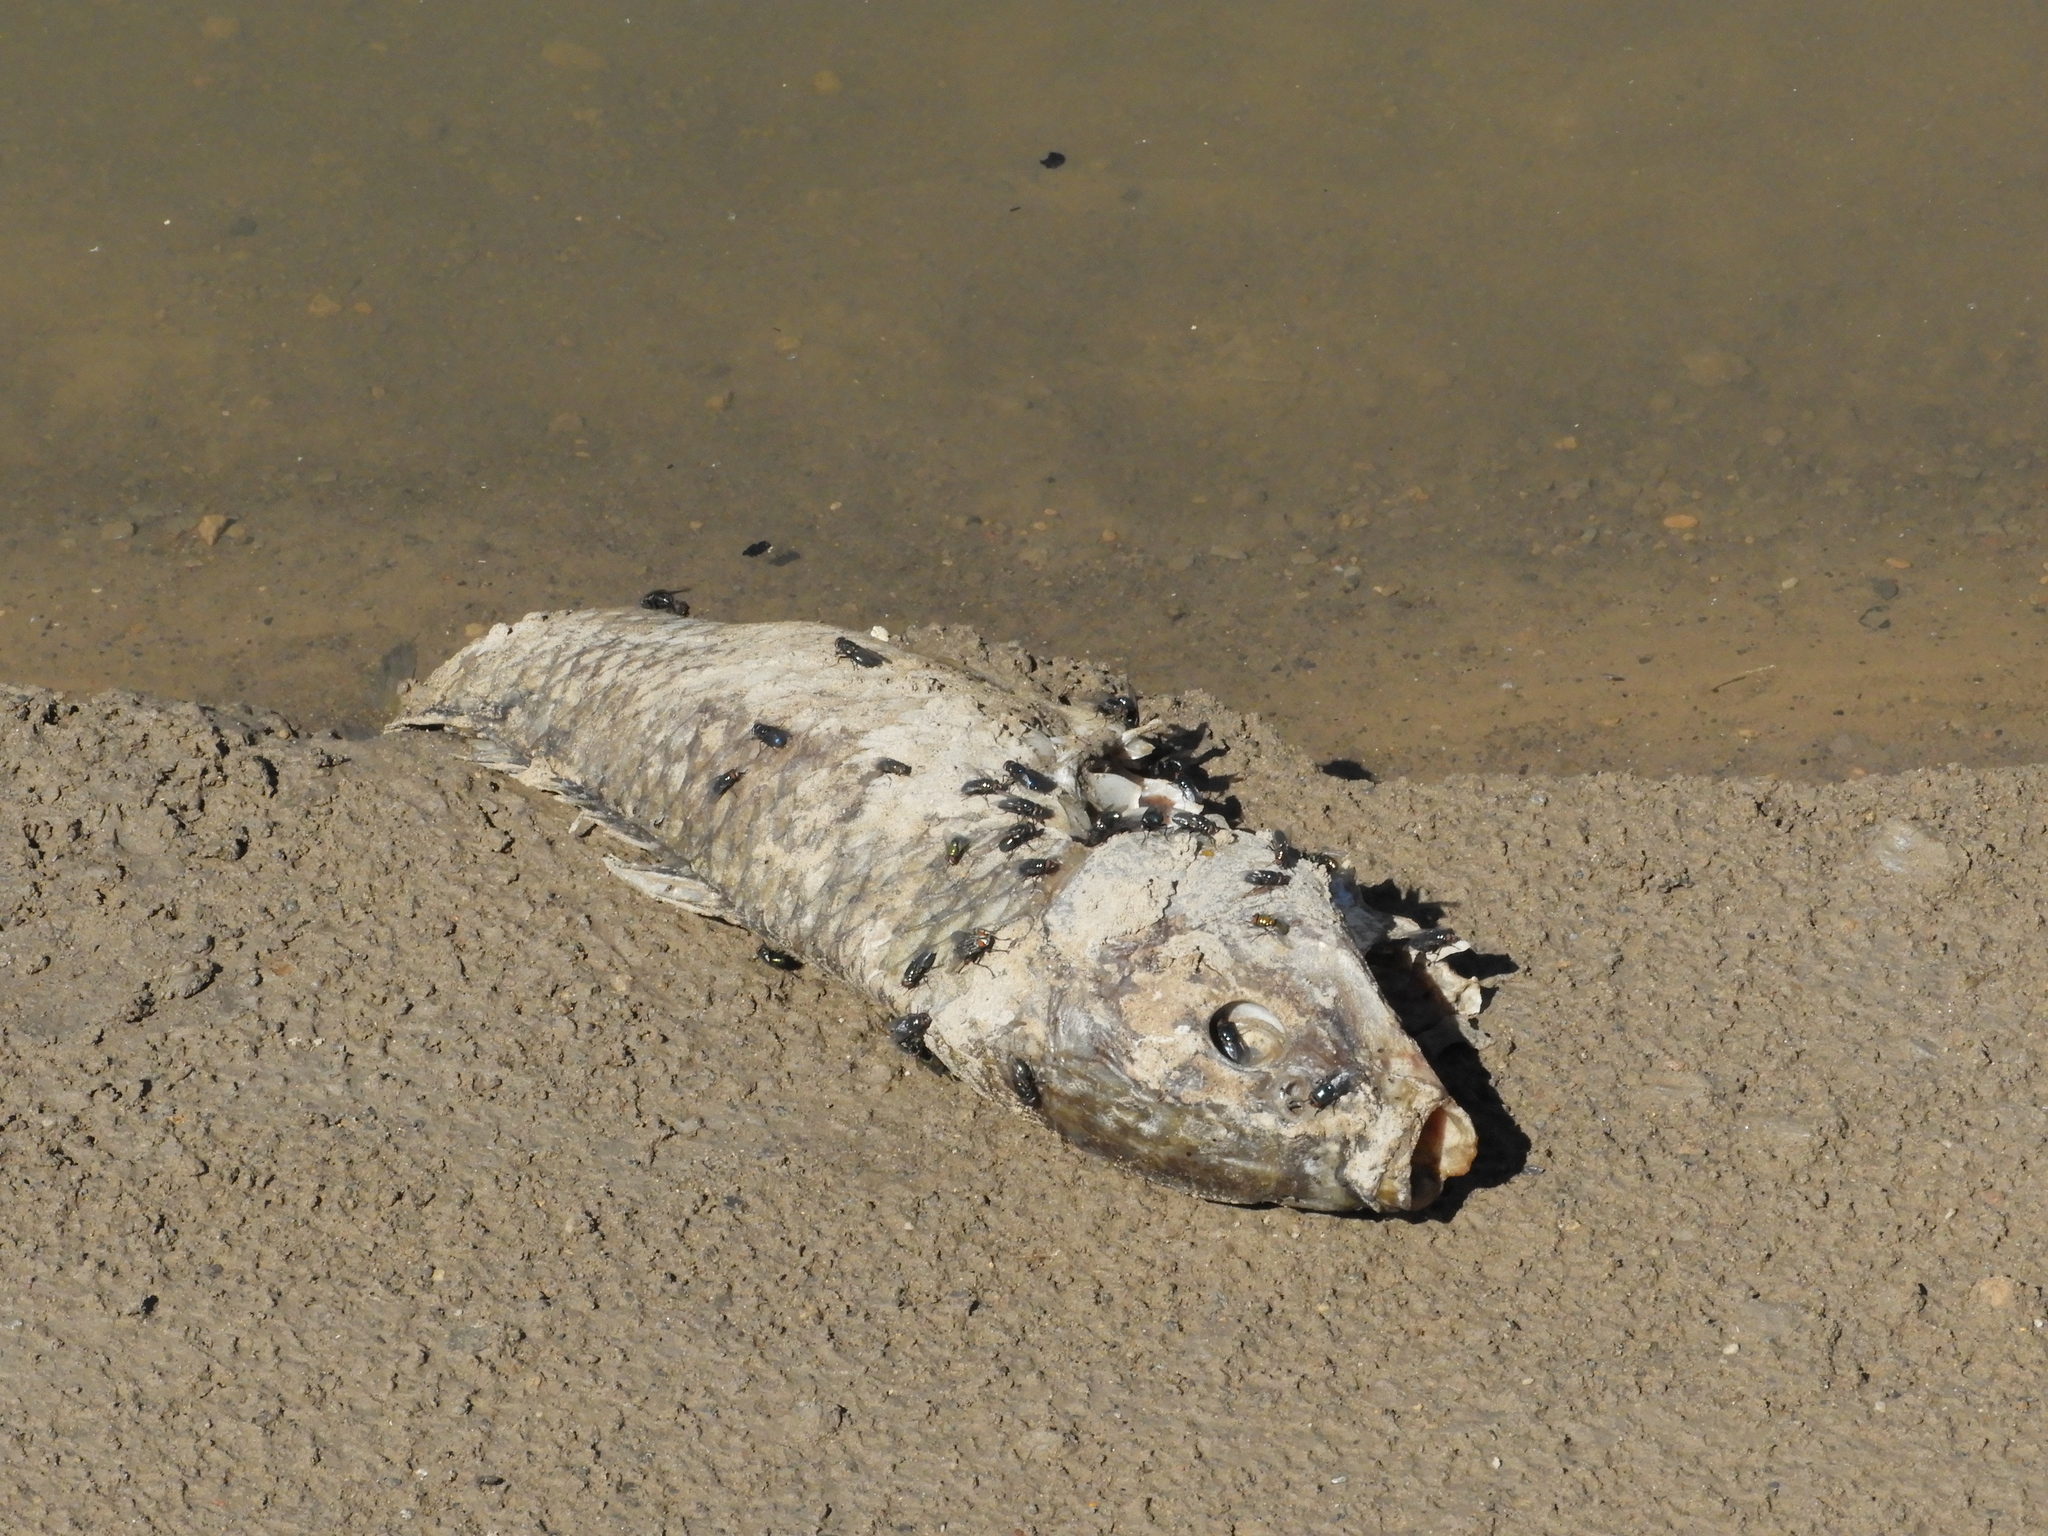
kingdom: Animalia
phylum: Chordata
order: Cypriniformes
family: Cyprinidae
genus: Cyprinus
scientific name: Cyprinus carpio
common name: Common carp
